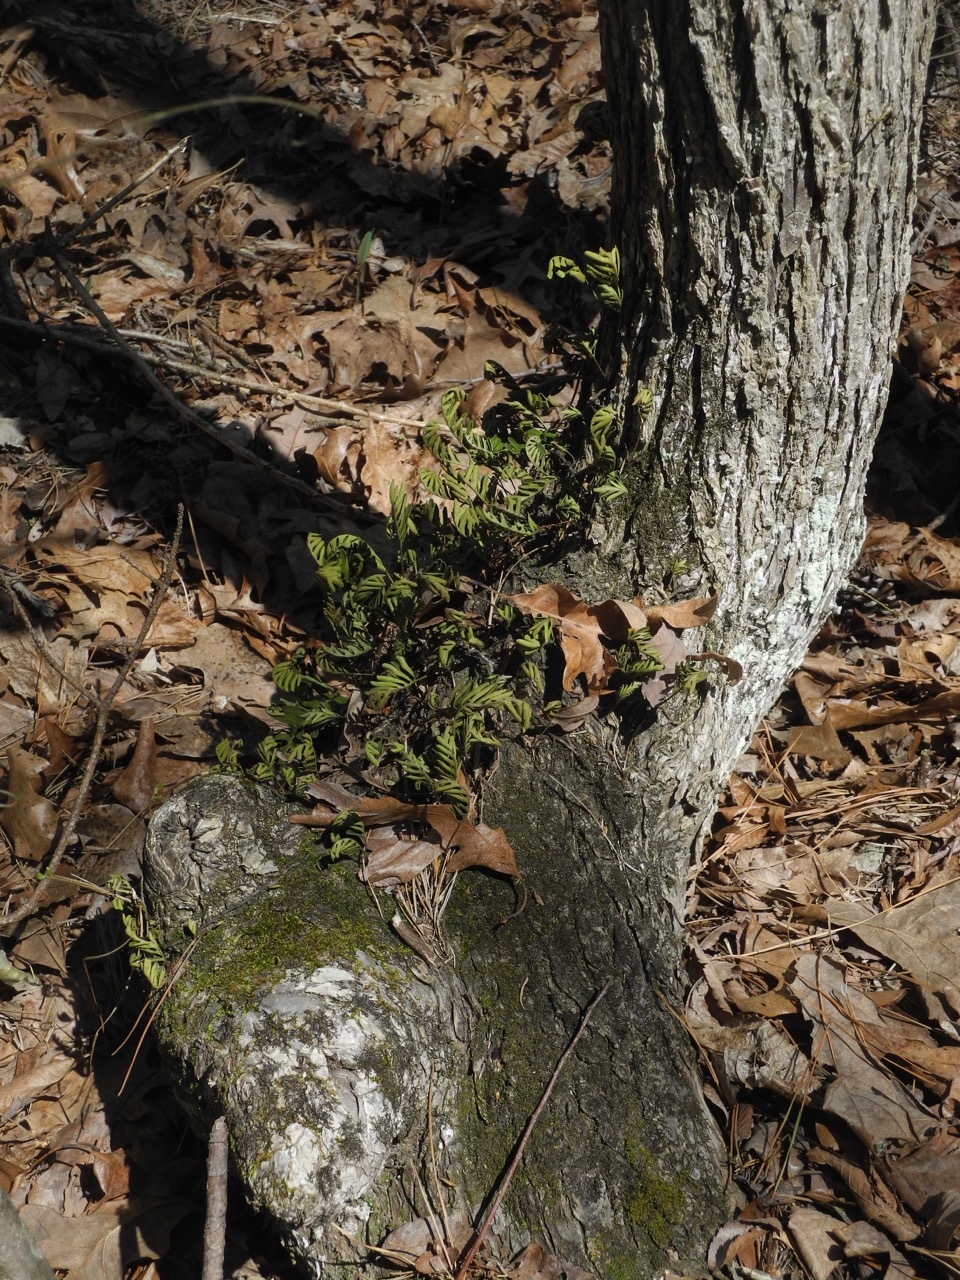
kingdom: Plantae
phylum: Tracheophyta
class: Polypodiopsida
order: Polypodiales
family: Polypodiaceae
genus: Pleopeltis
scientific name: Pleopeltis michauxiana
